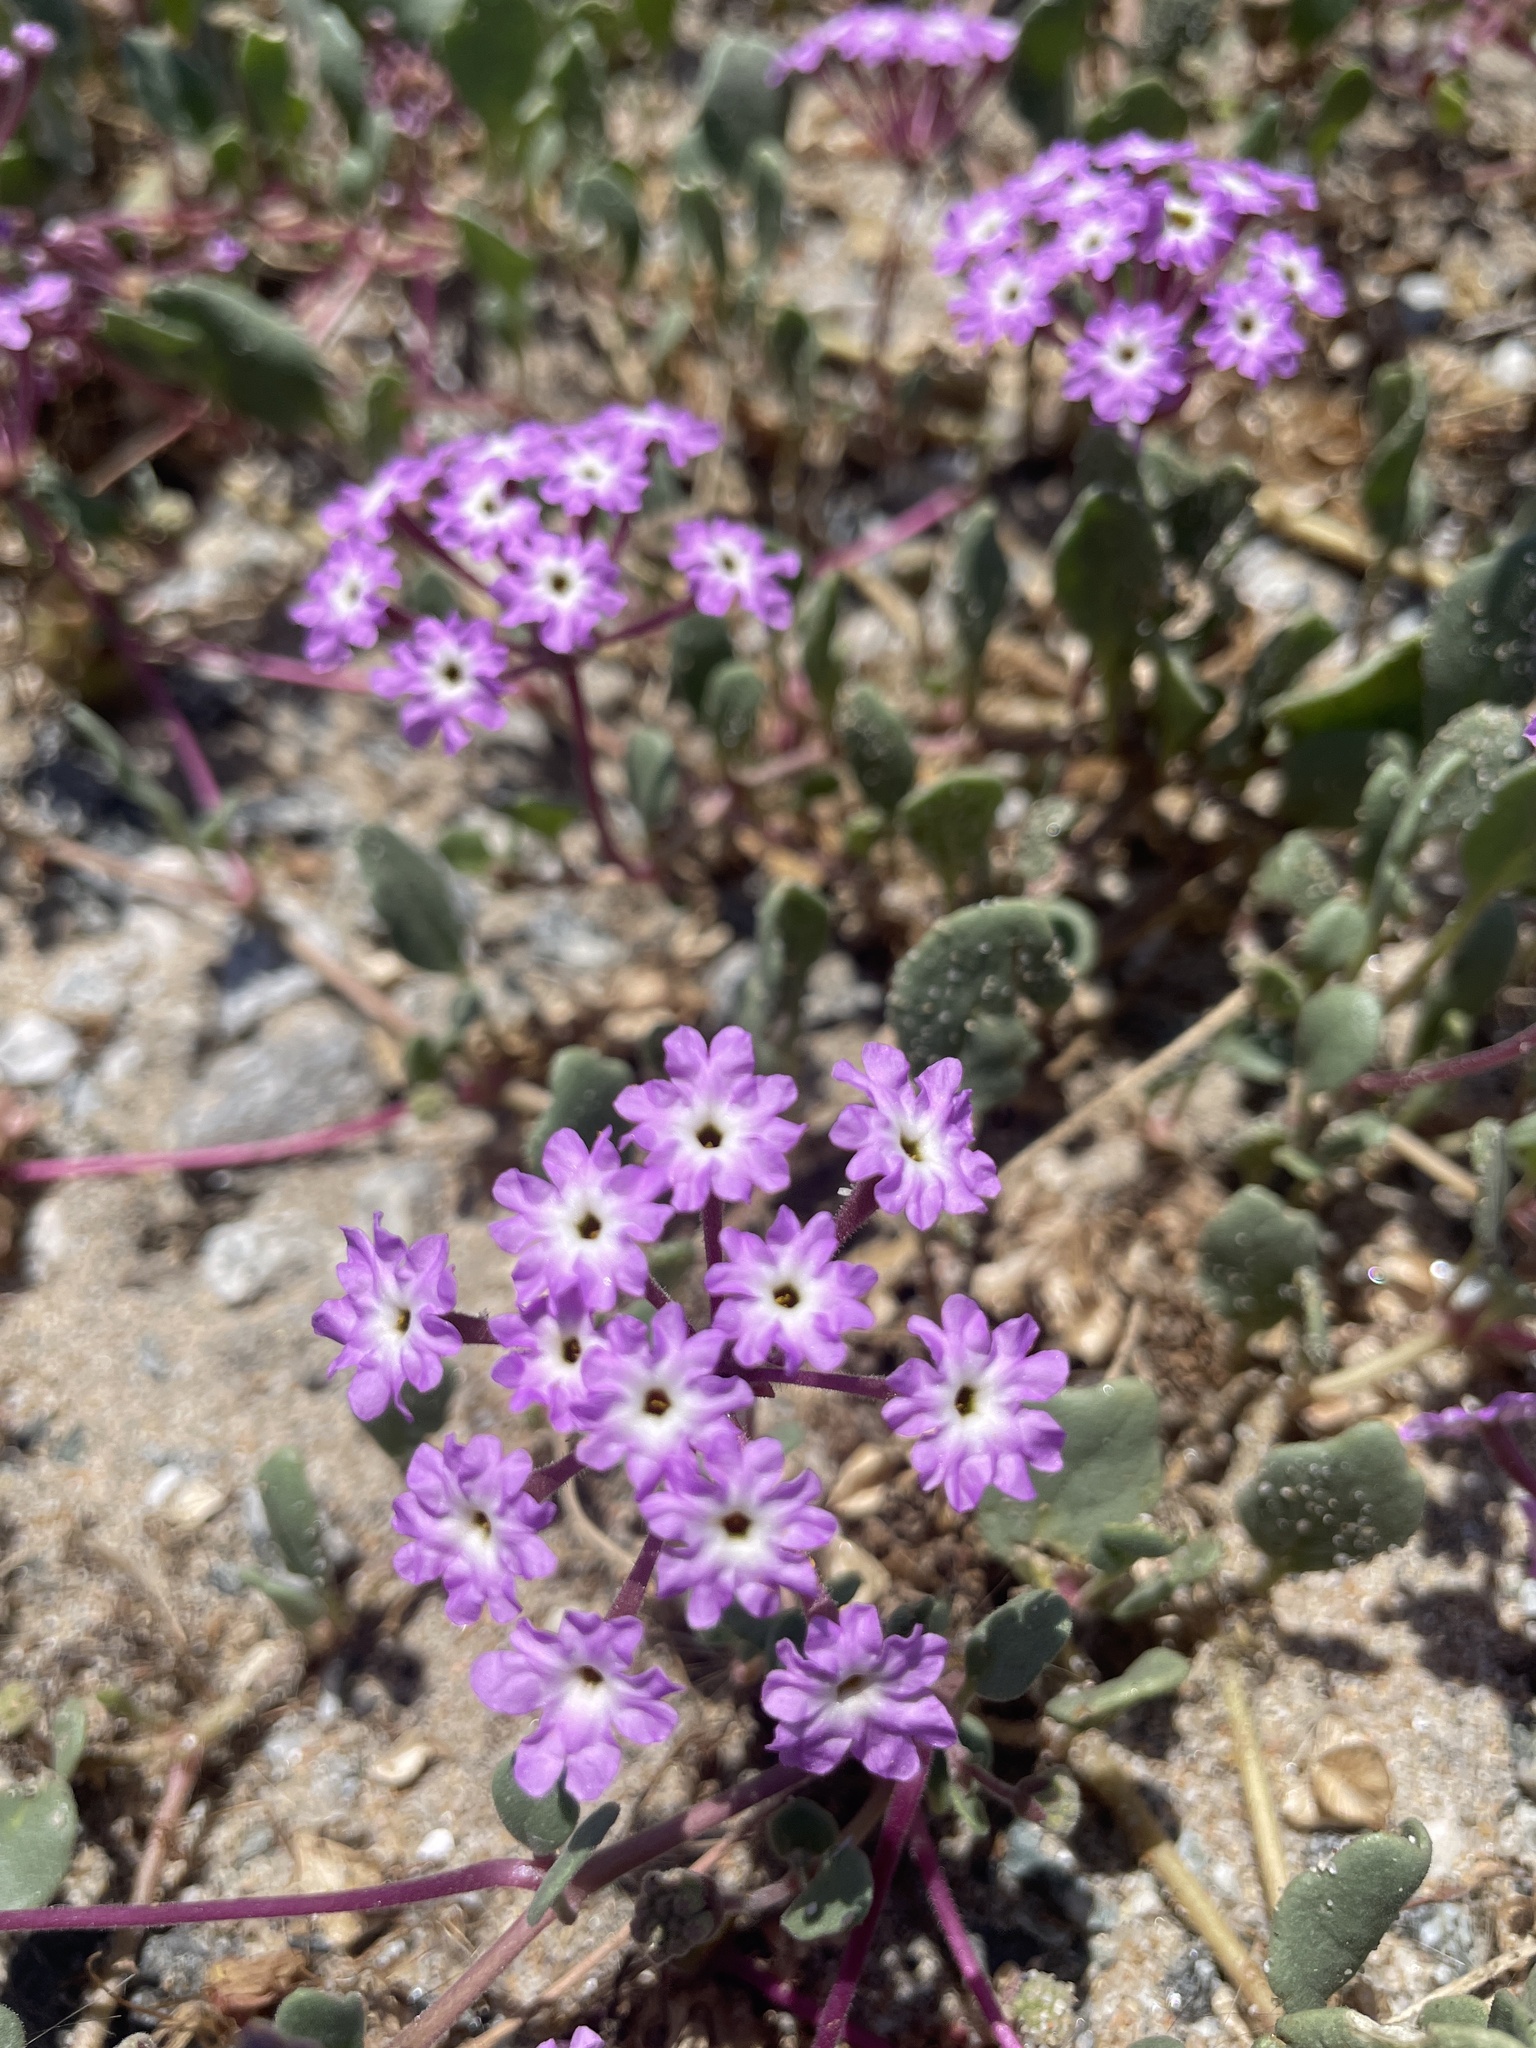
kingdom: Plantae
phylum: Tracheophyta
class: Magnoliopsida
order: Caryophyllales
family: Nyctaginaceae
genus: Abronia
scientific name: Abronia umbellata
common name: Sand-verbena
